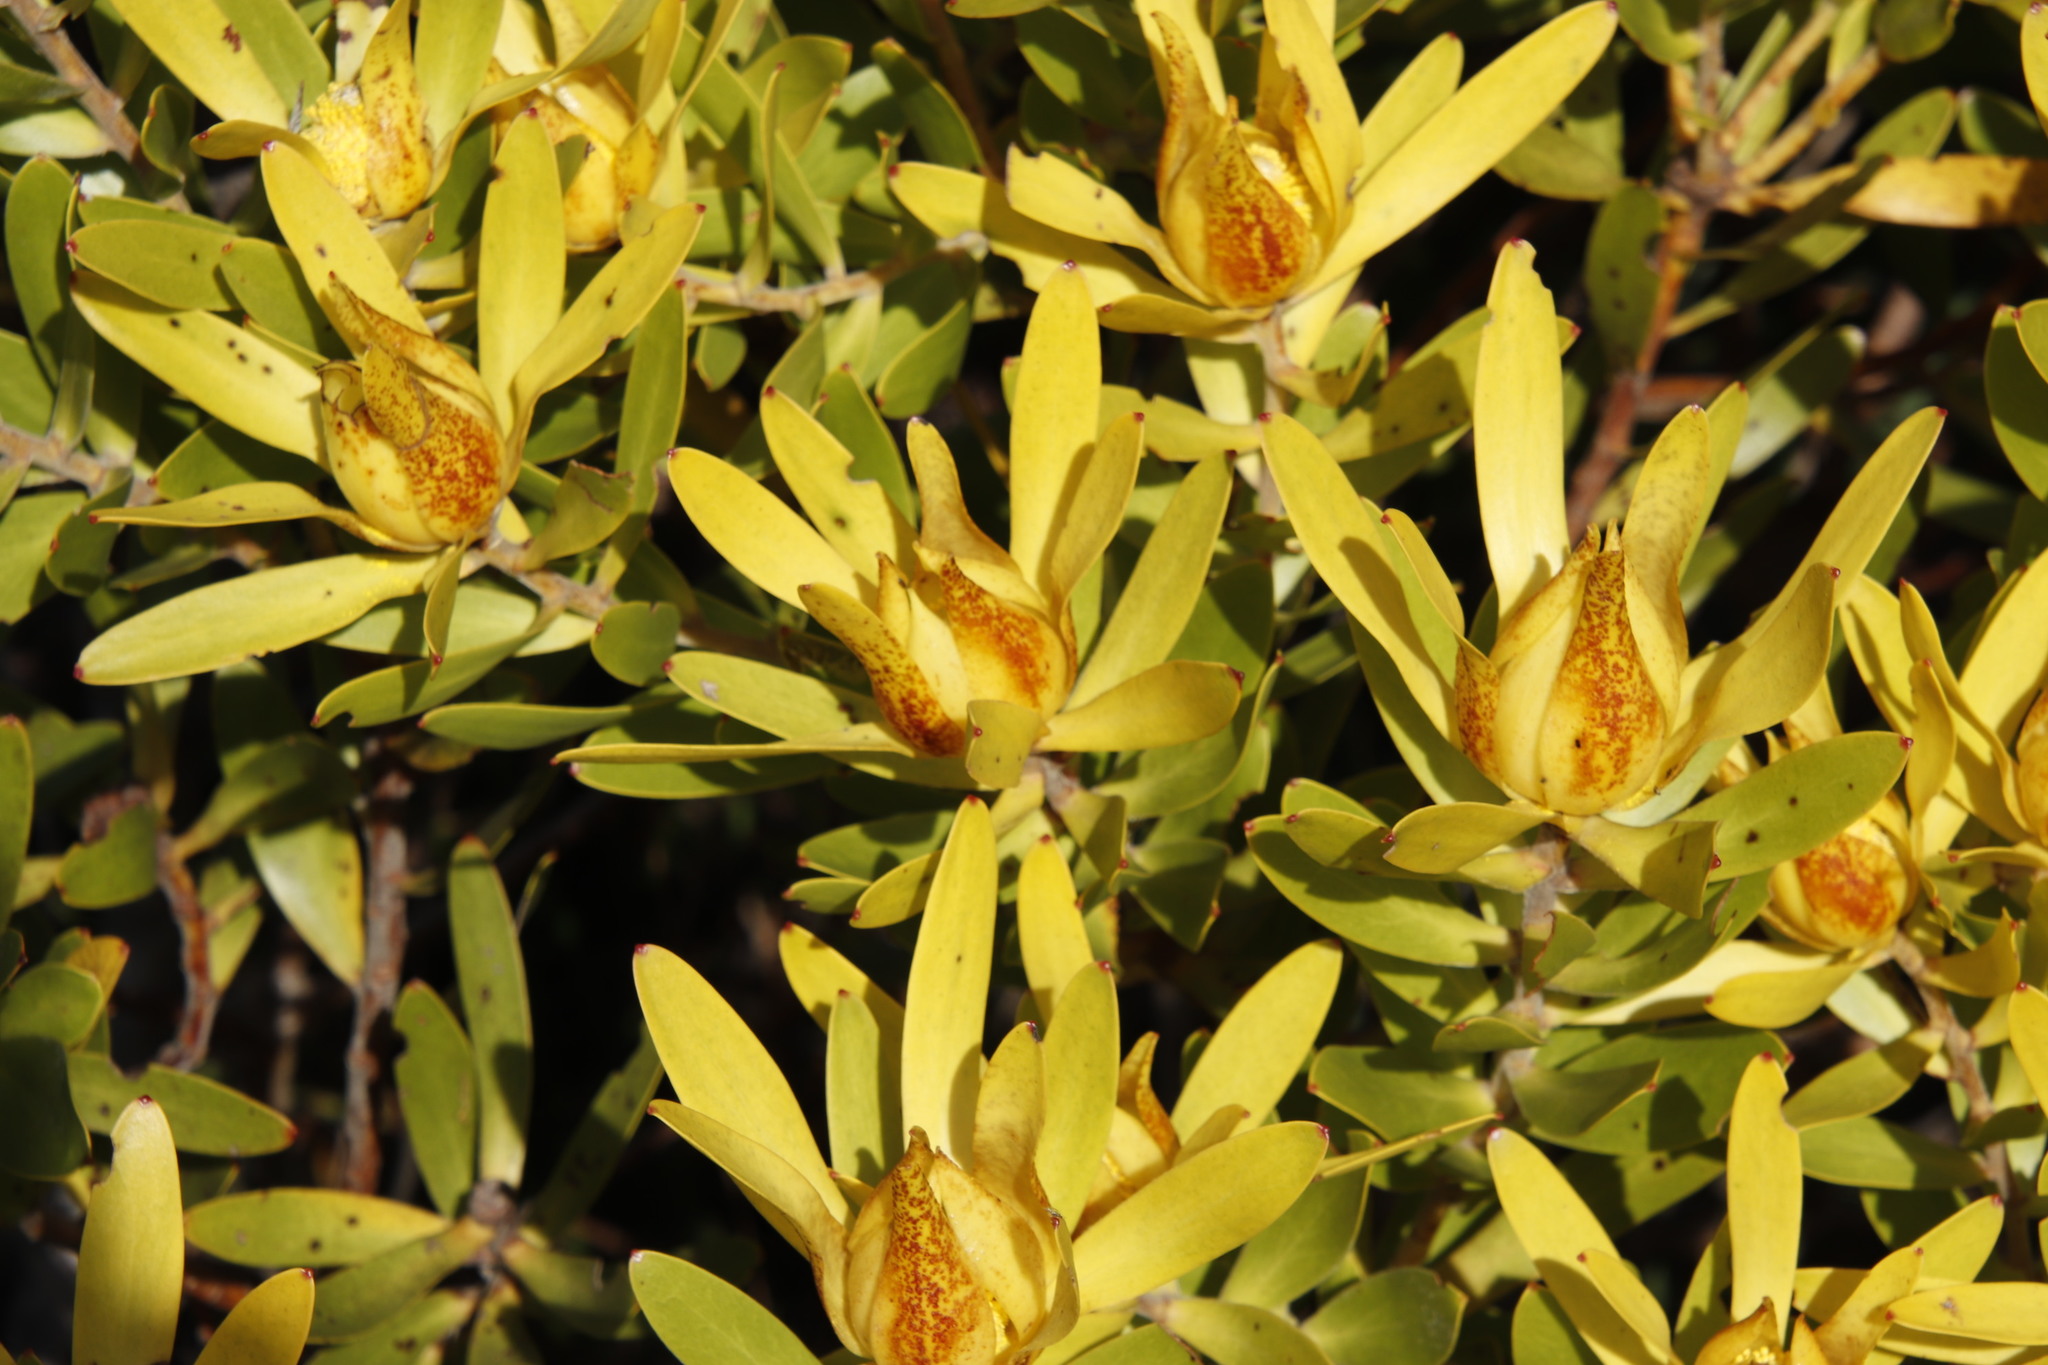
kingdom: Plantae
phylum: Tracheophyta
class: Magnoliopsida
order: Proteales
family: Proteaceae
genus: Leucadendron
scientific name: Leucadendron laureolum
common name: Golden sunshinebush
